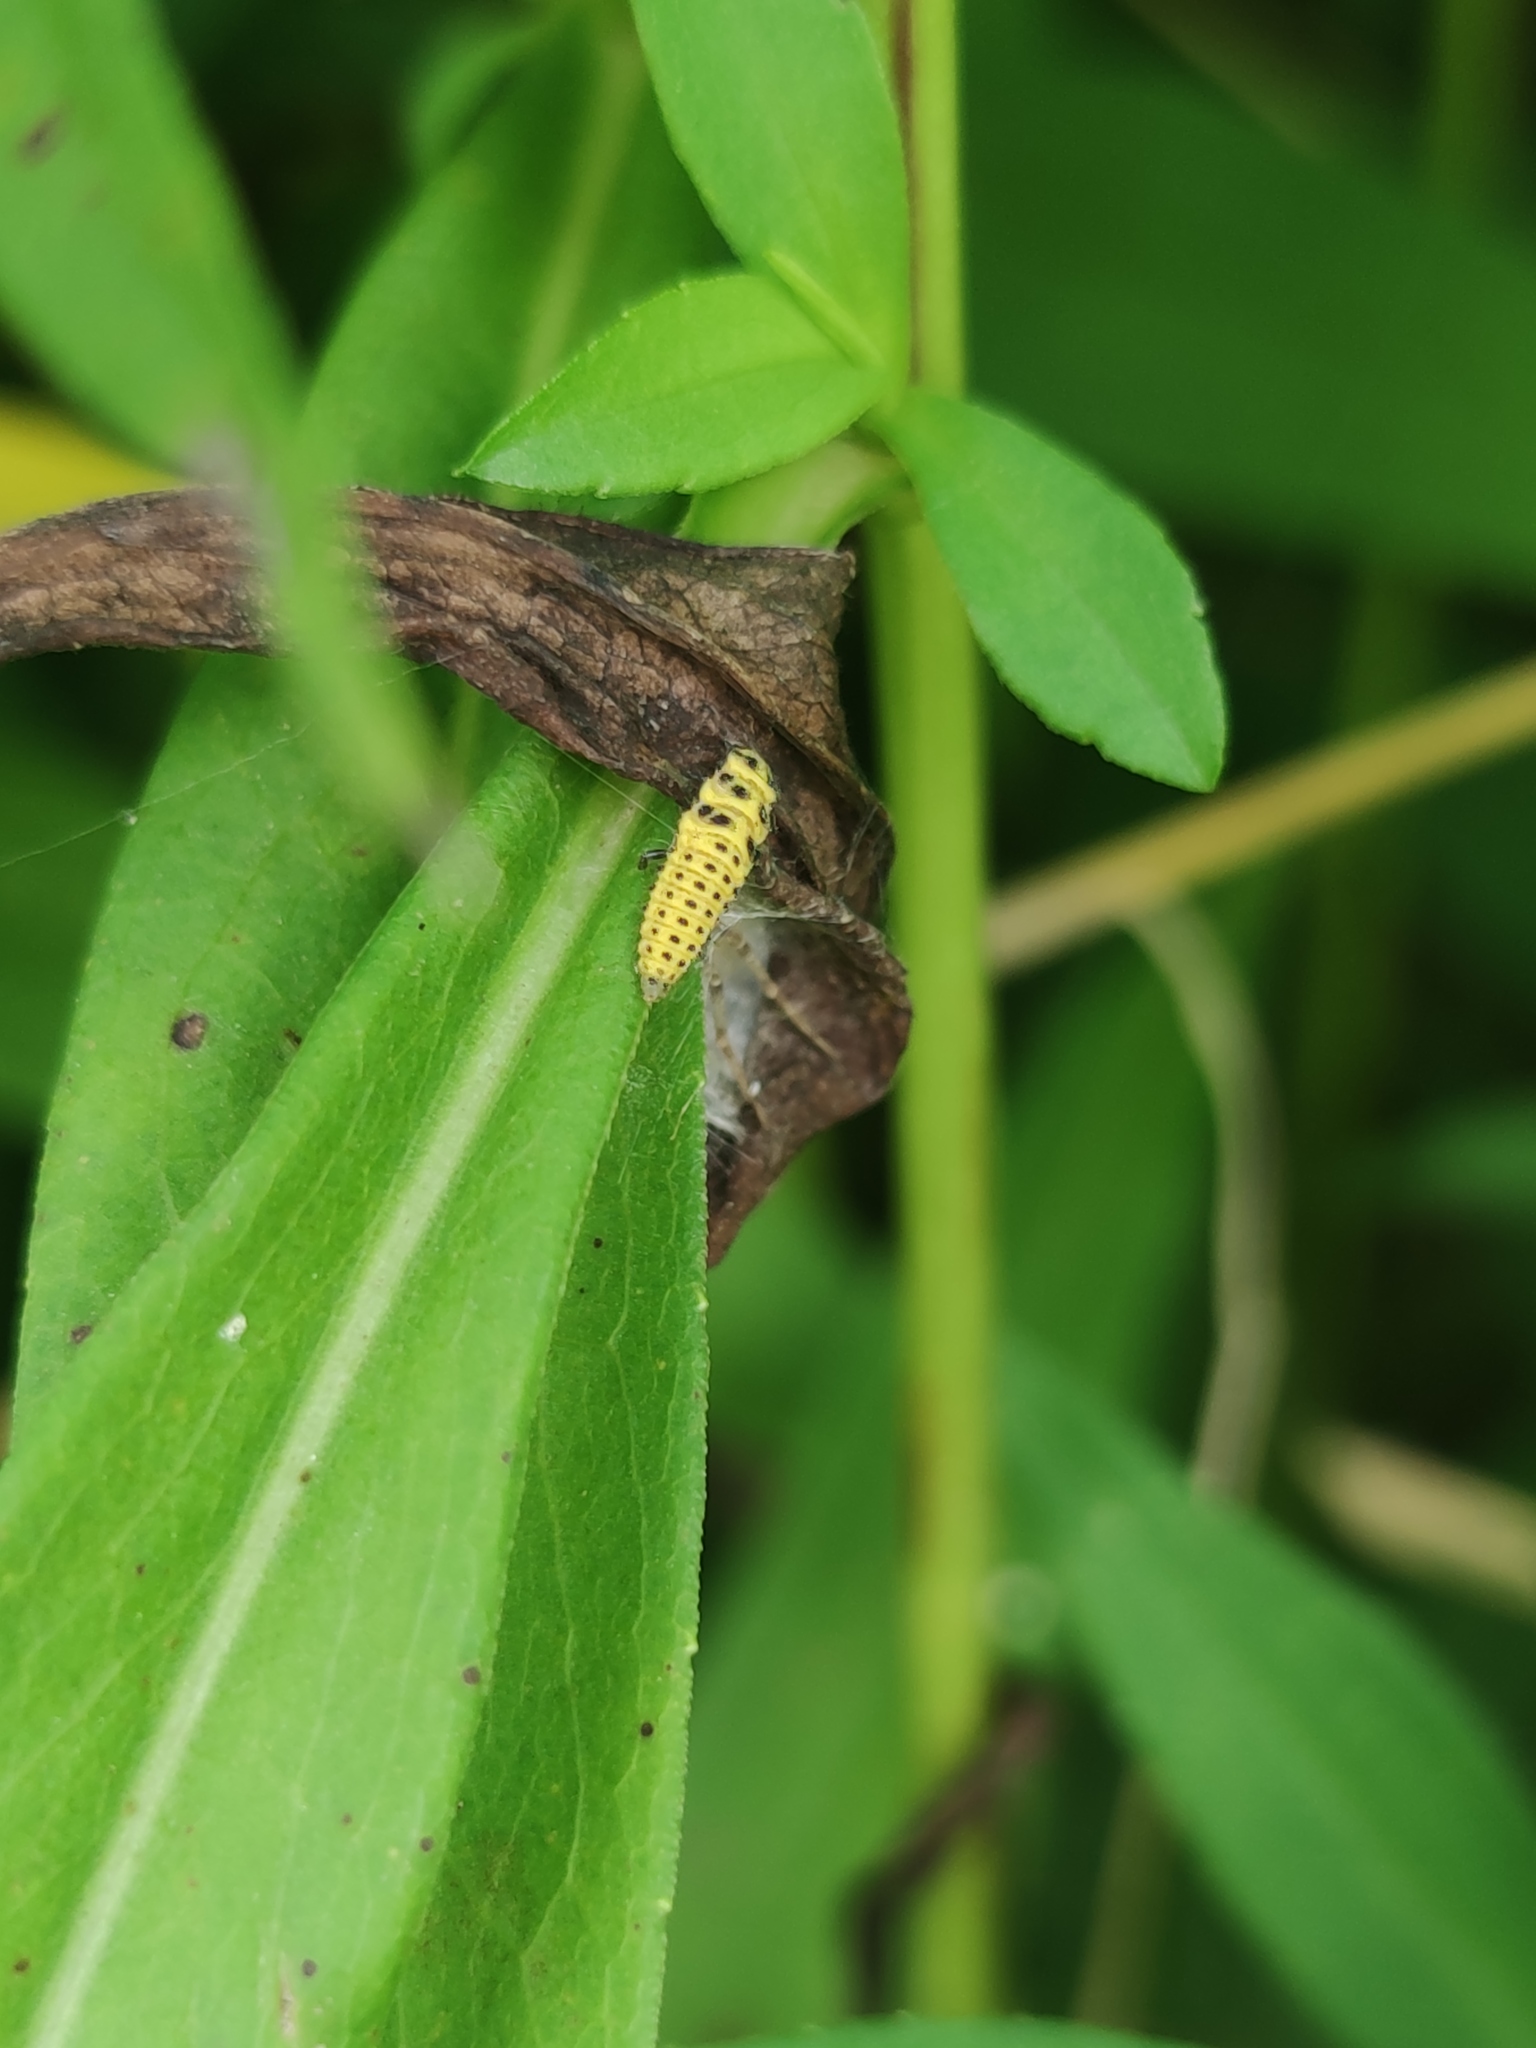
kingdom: Animalia
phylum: Arthropoda
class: Insecta
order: Coleoptera
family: Coccinellidae
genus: Psyllobora
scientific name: Psyllobora vigintiduopunctata
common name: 22-spot ladybird
